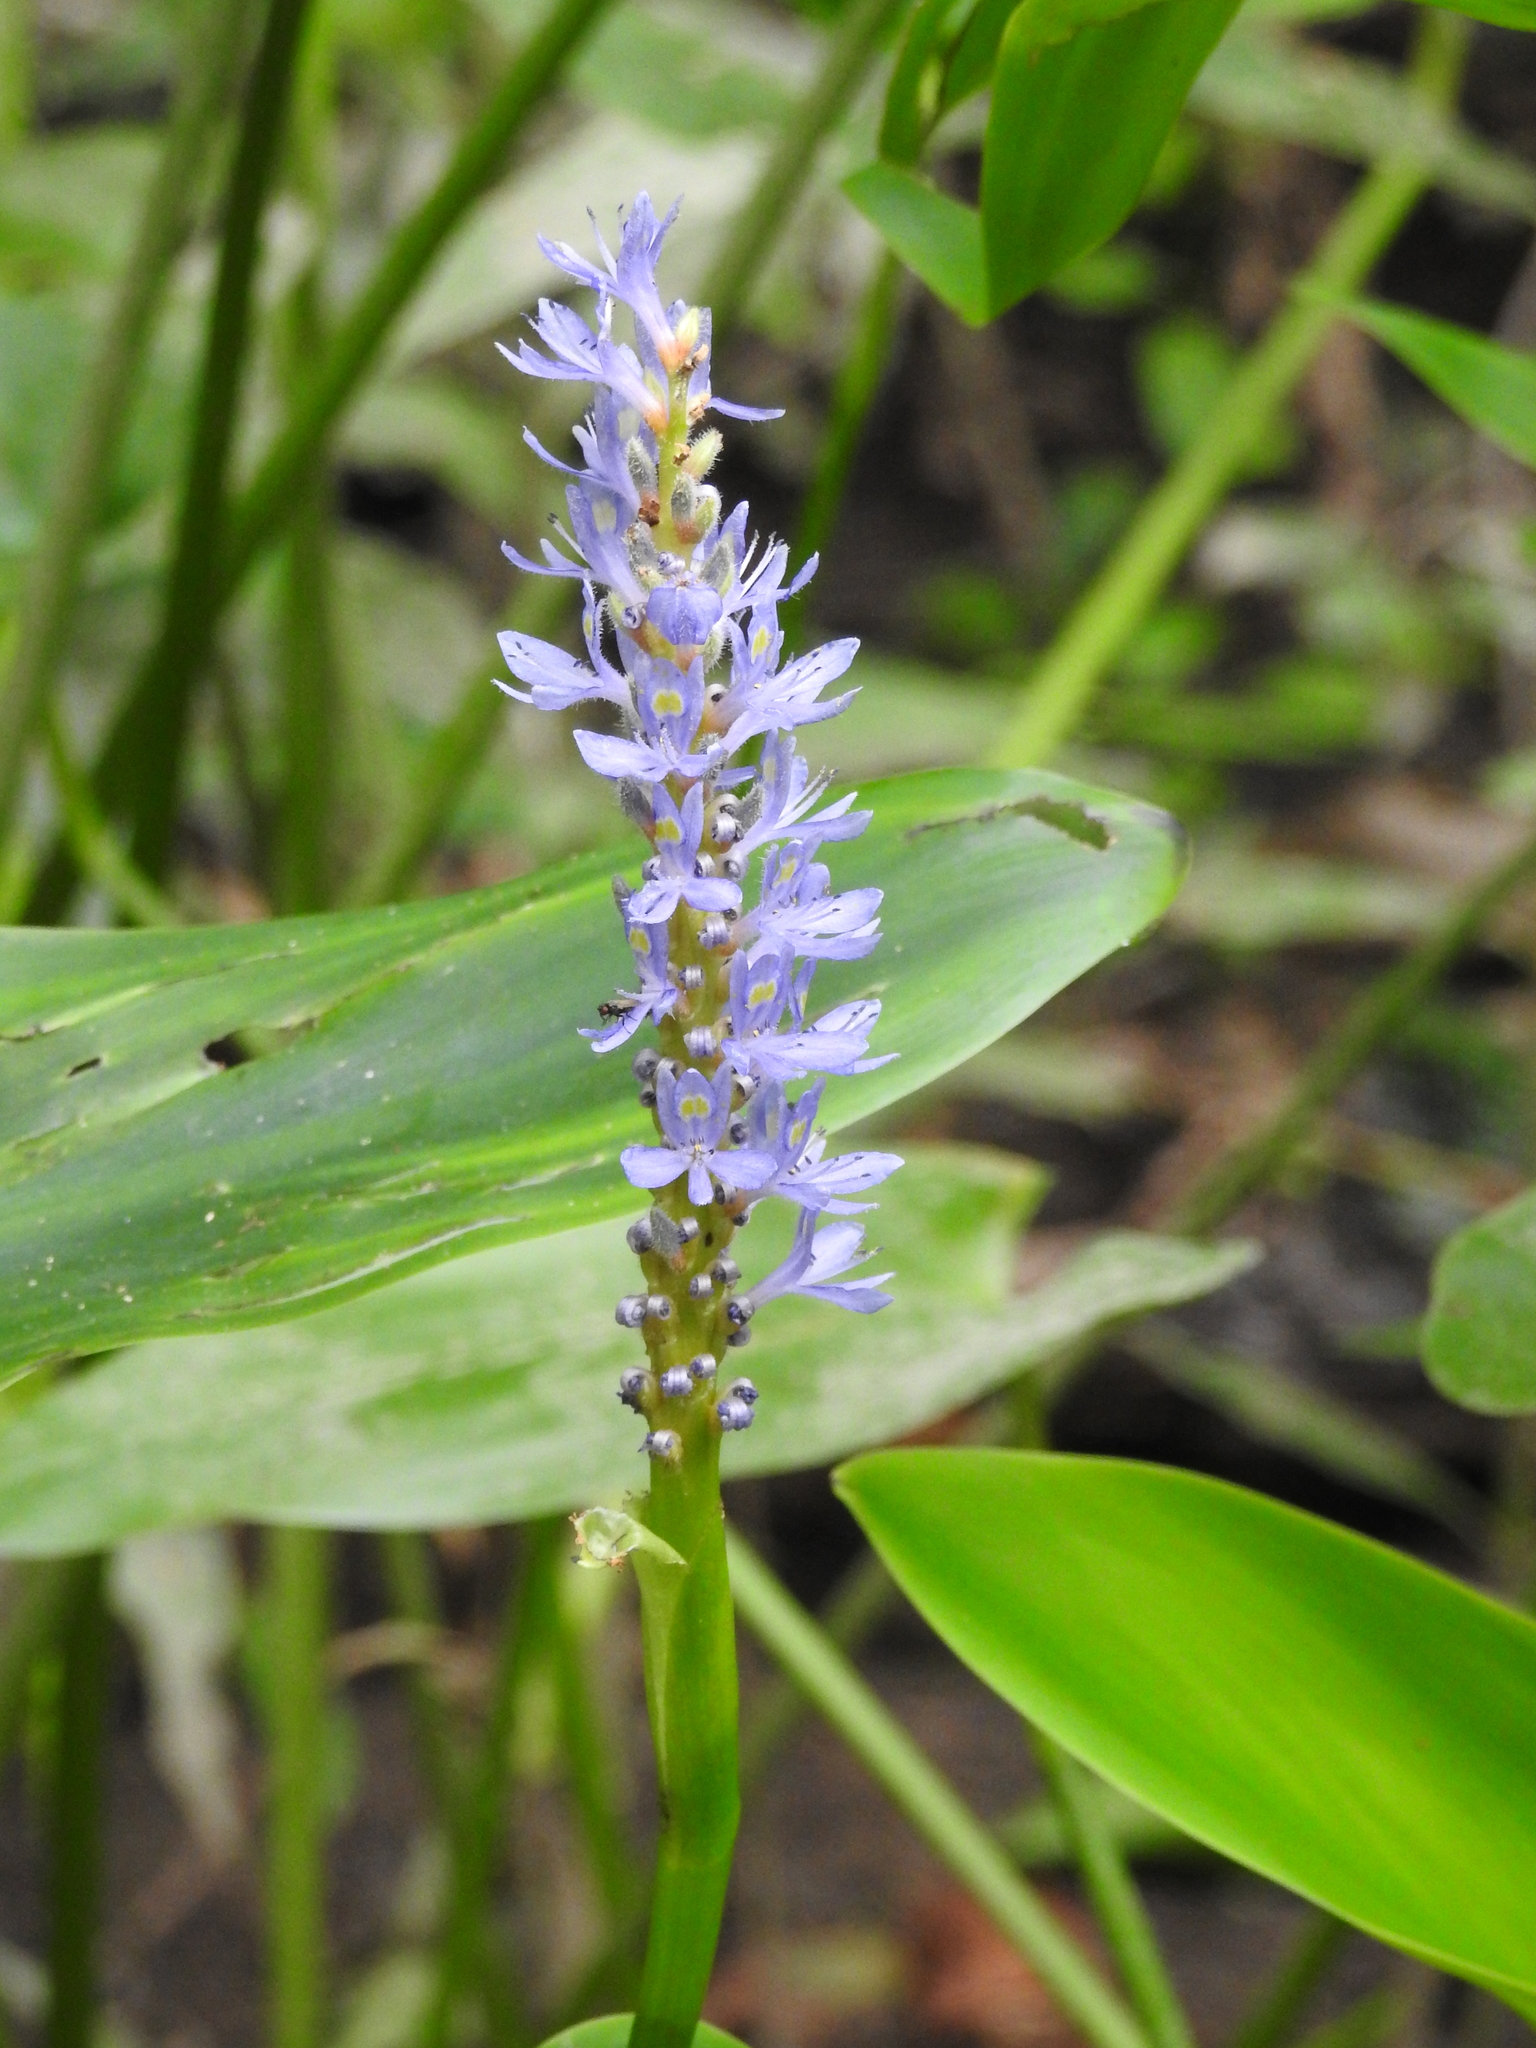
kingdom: Plantae
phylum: Tracheophyta
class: Liliopsida
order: Commelinales
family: Pontederiaceae
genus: Pontederia
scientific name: Pontederia cordata
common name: Pickerelweed
